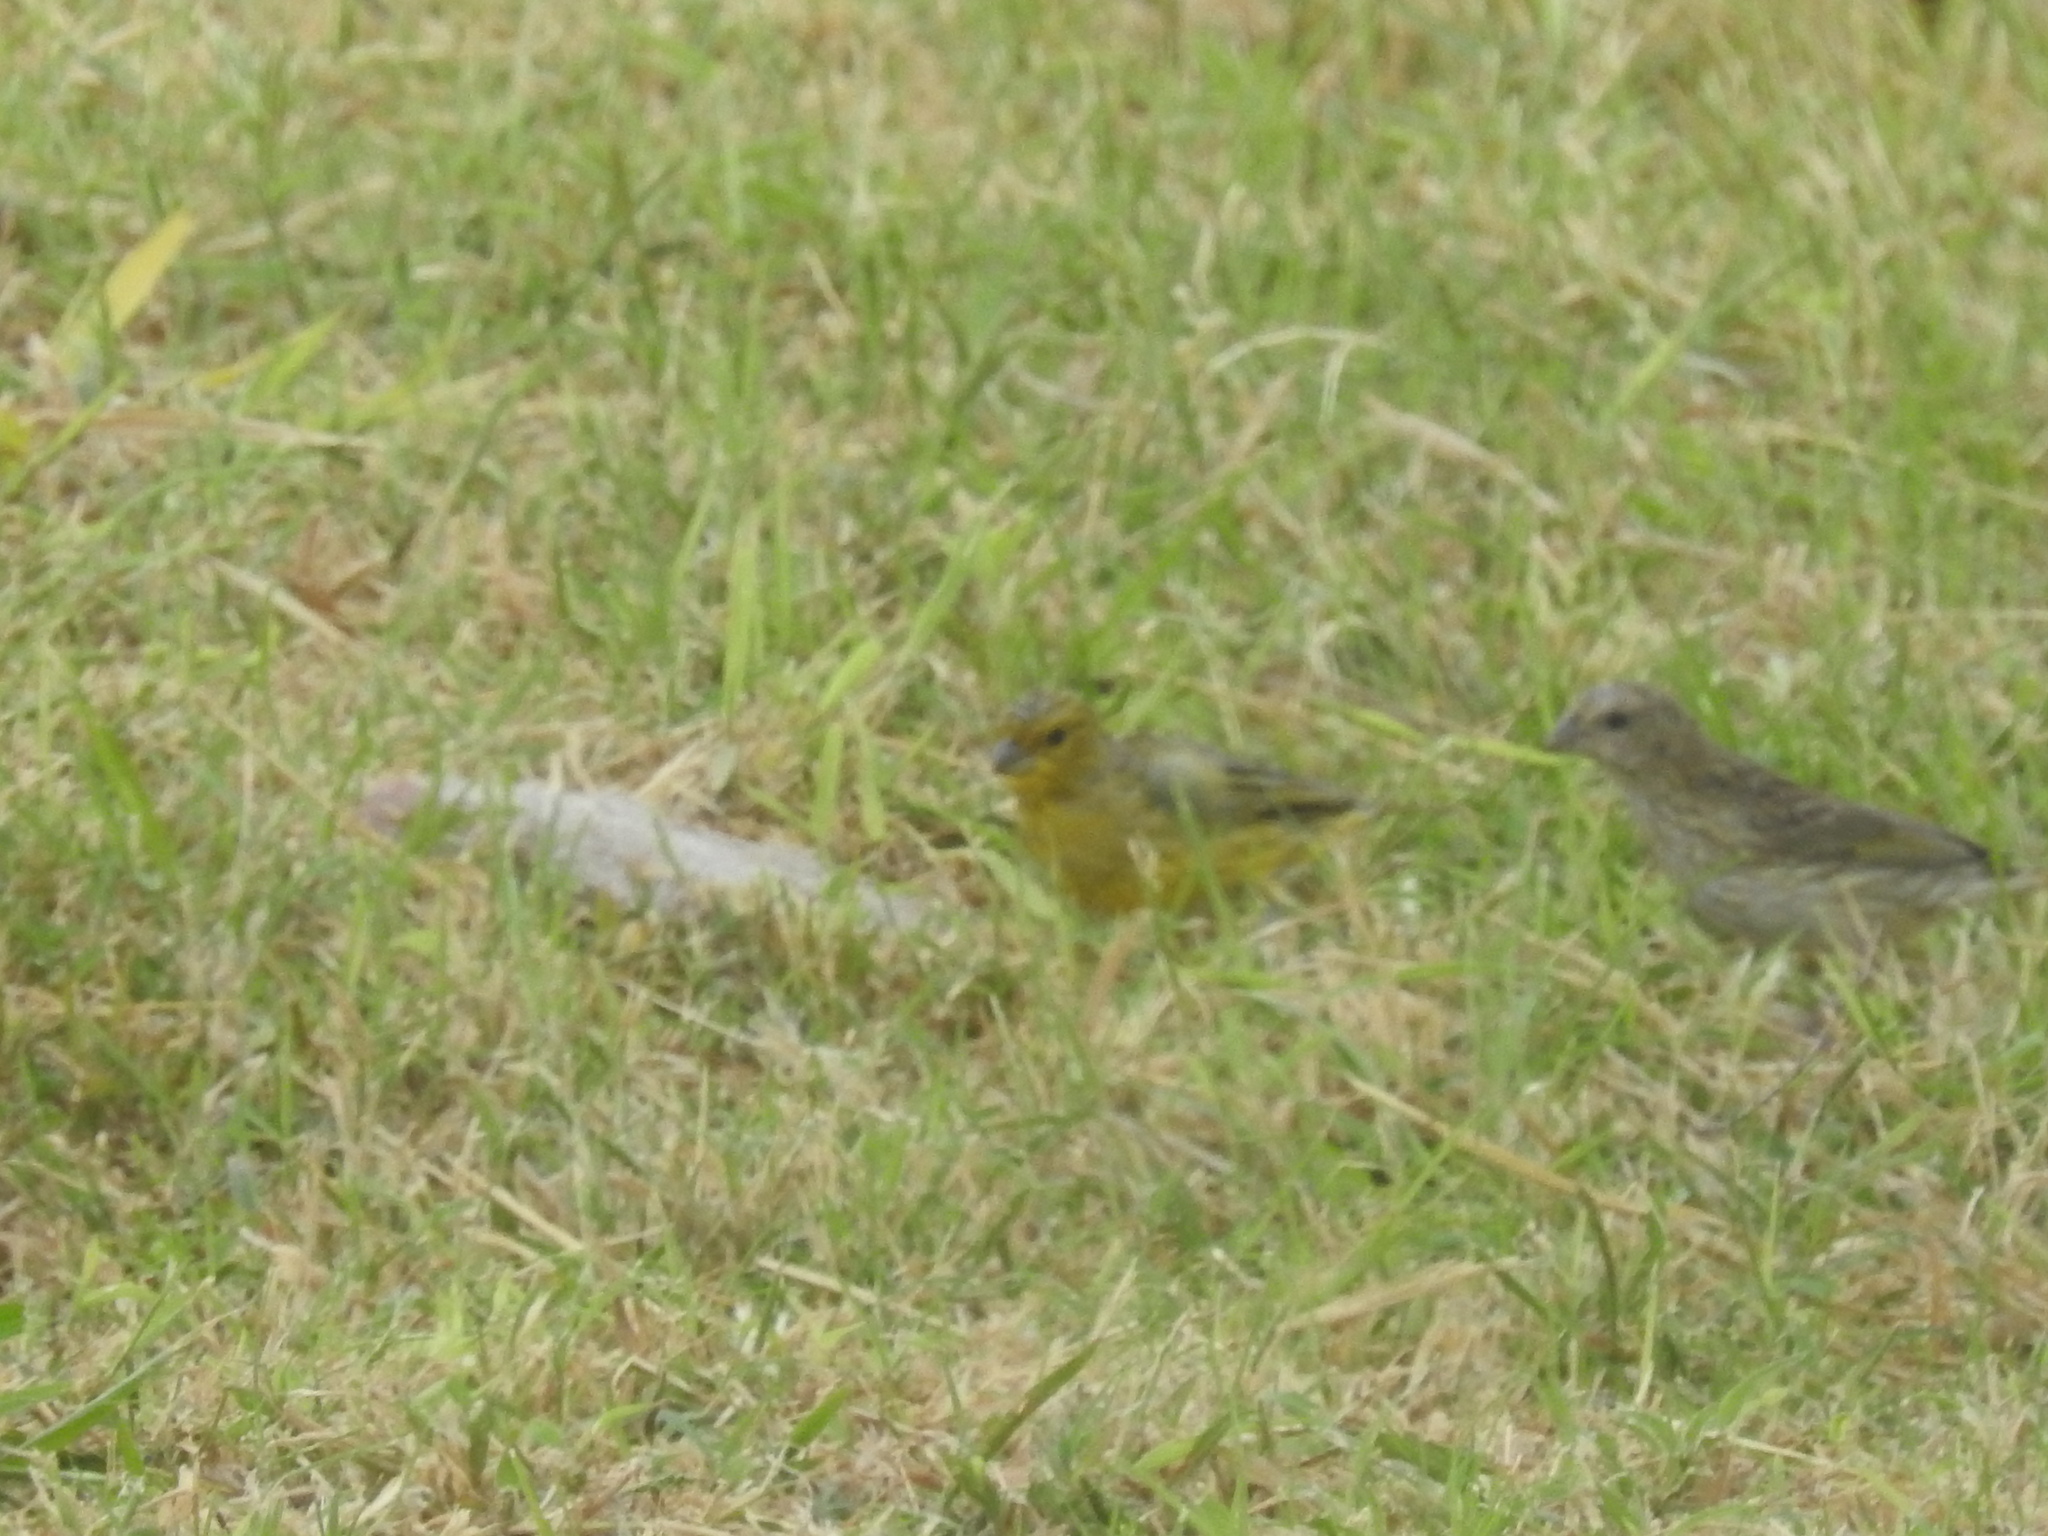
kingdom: Animalia
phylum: Chordata
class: Aves
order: Passeriformes
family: Thraupidae
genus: Sicalis
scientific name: Sicalis flaveola
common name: Saffron finch
